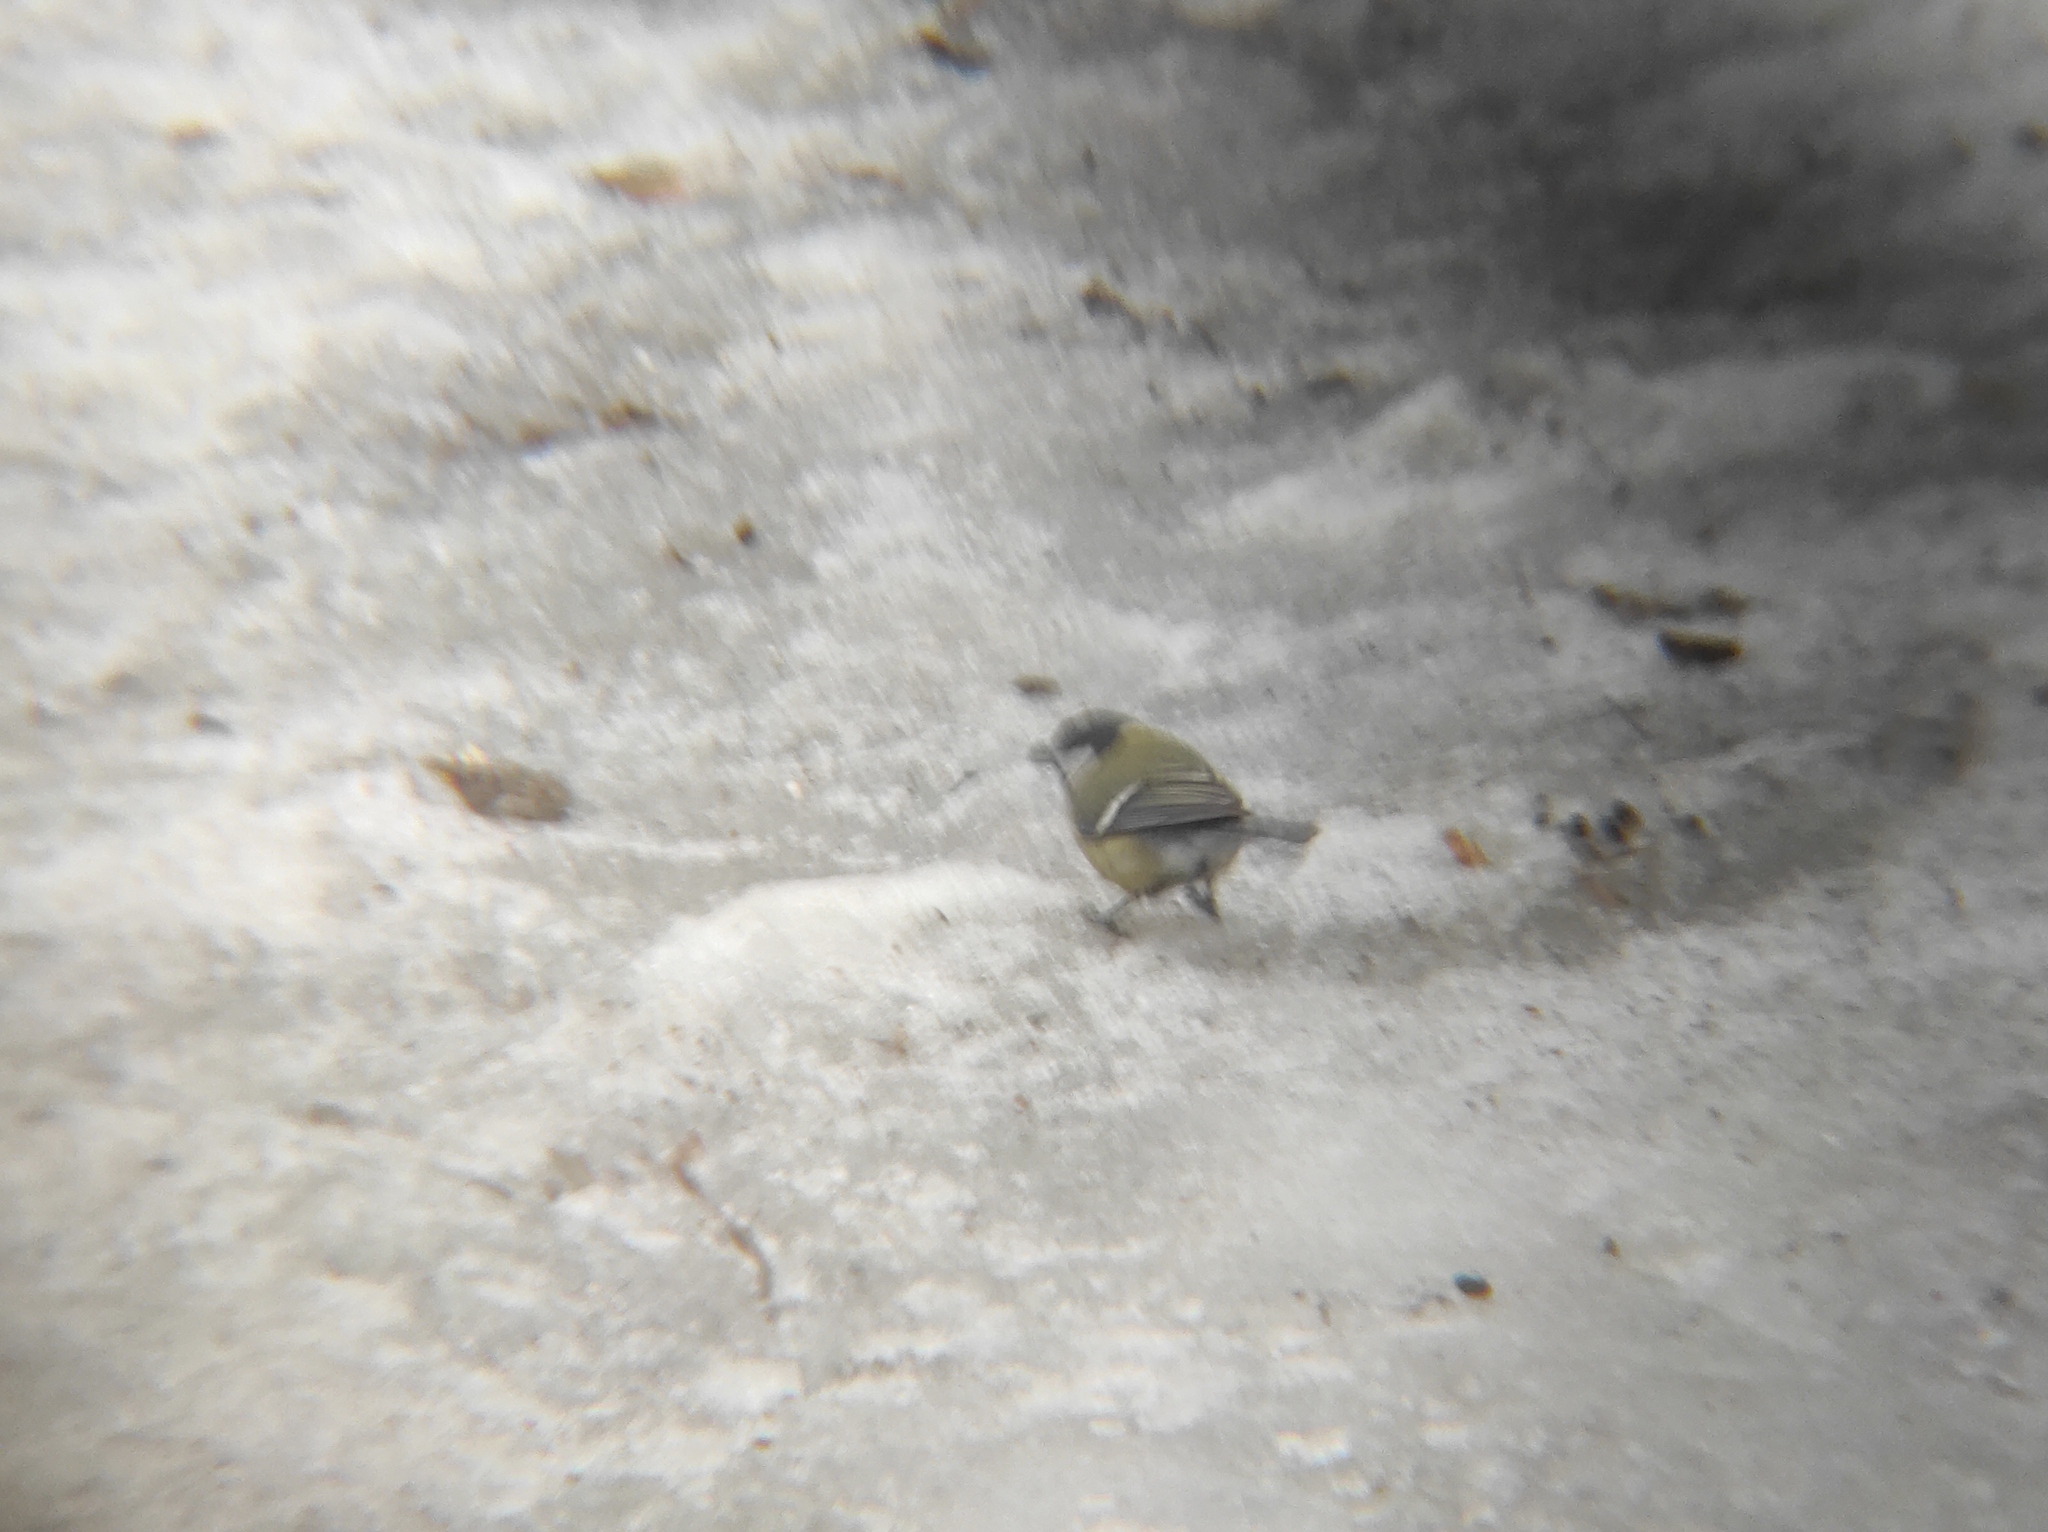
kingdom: Animalia
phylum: Chordata
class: Aves
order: Passeriformes
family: Paridae
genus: Parus
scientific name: Parus major
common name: Great tit
